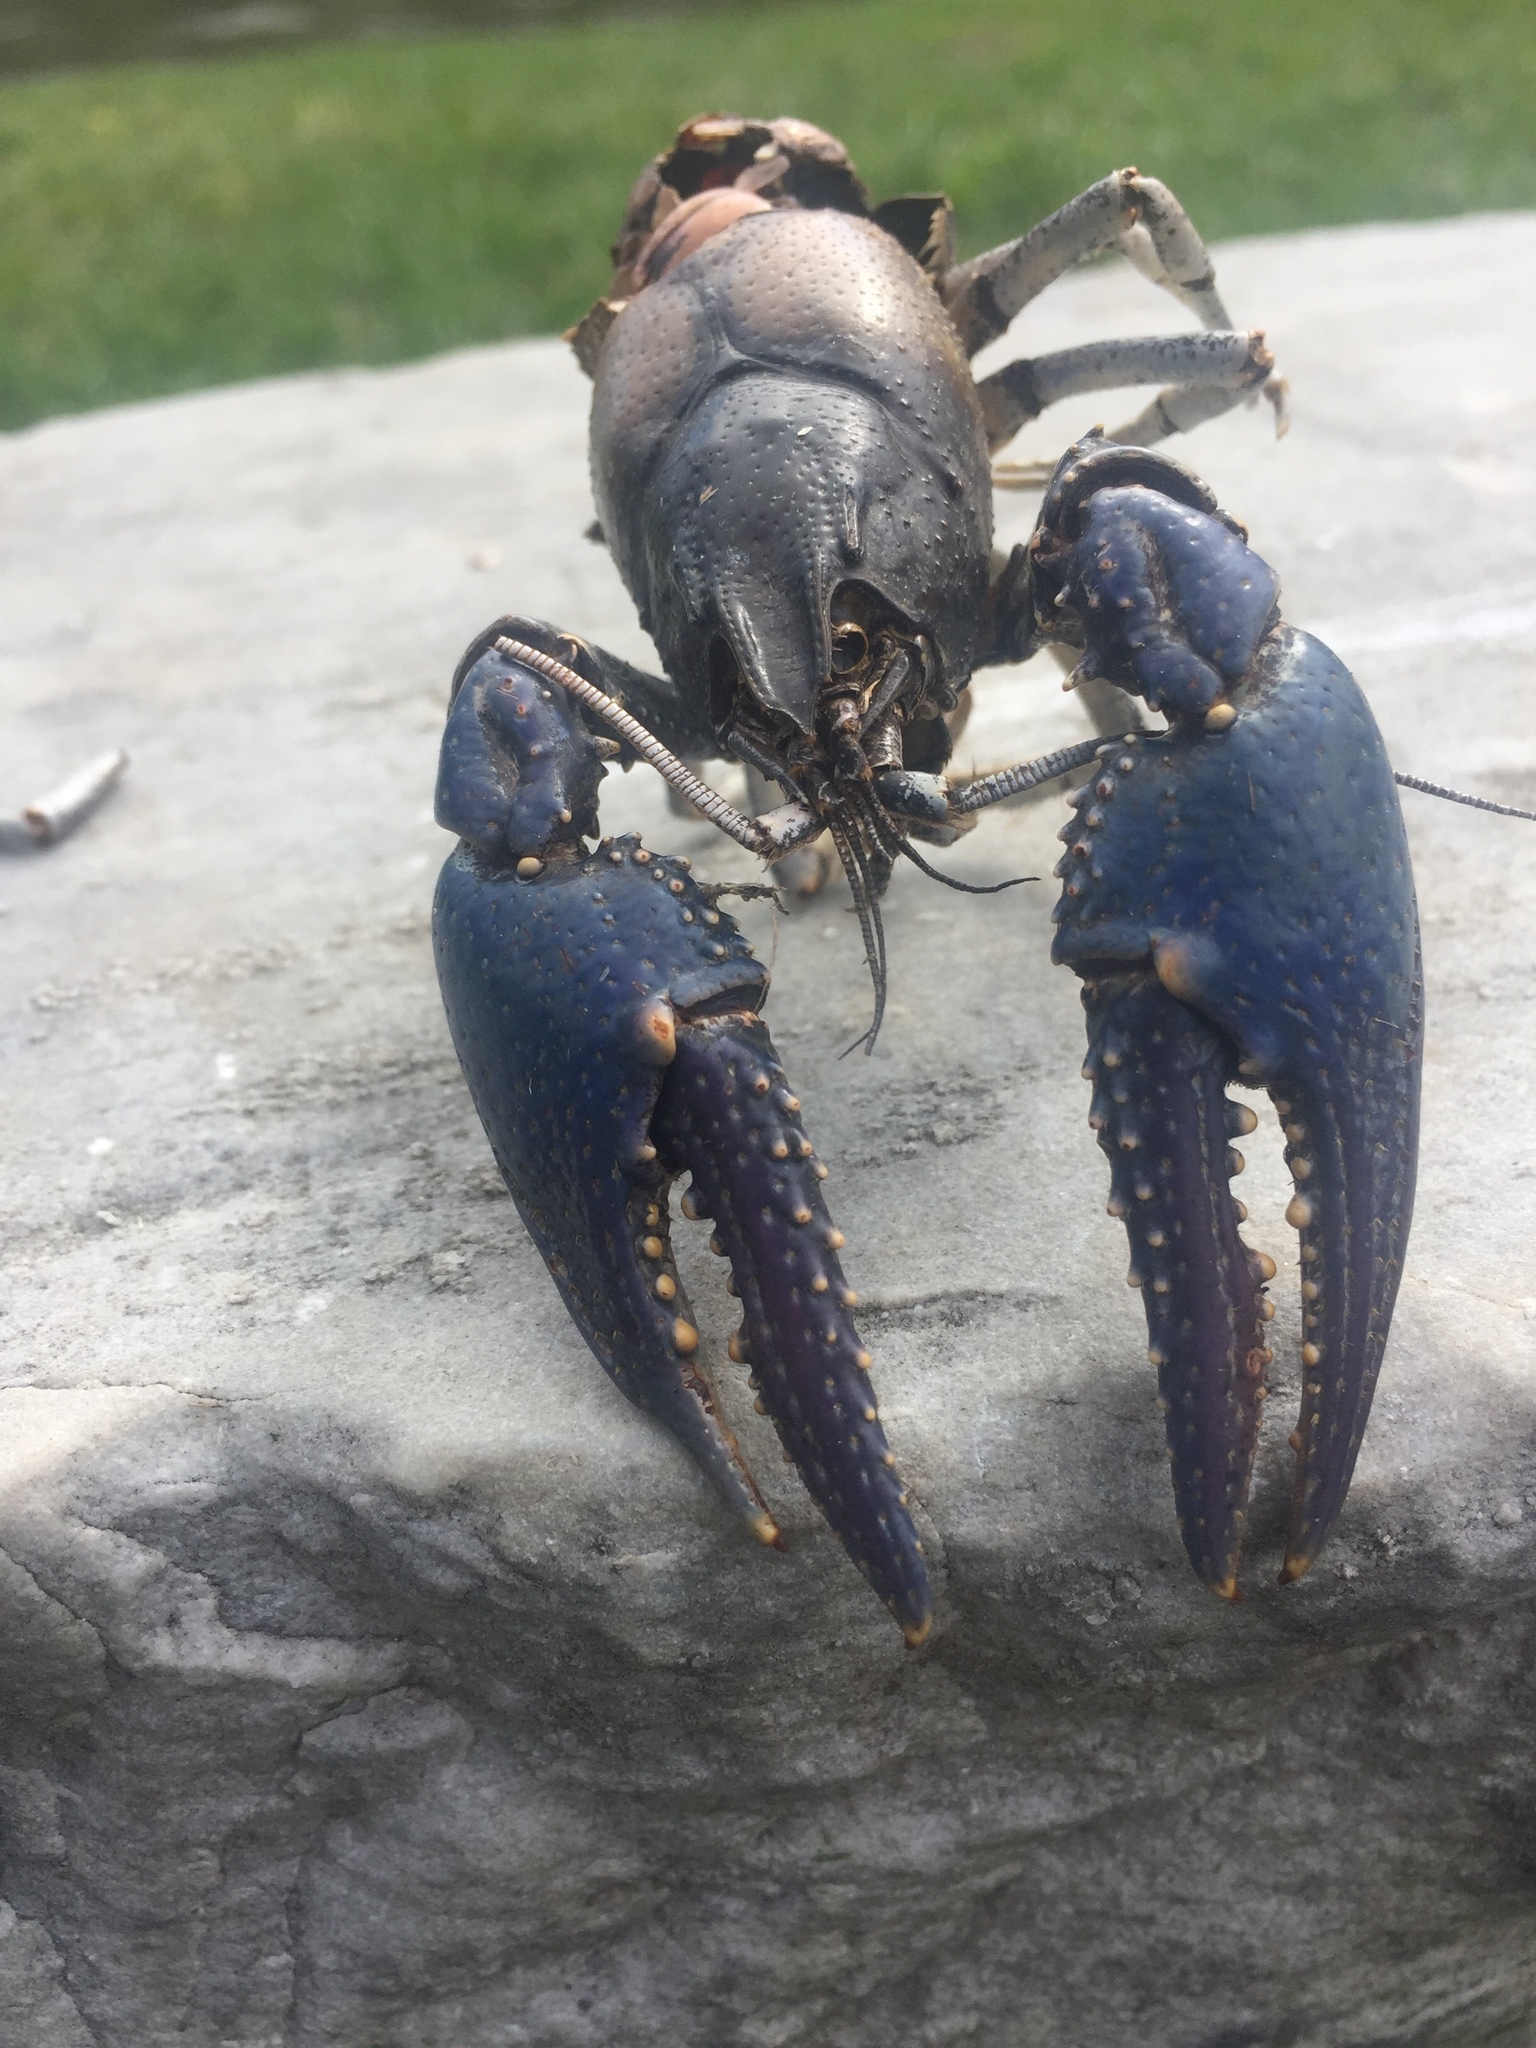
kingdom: Animalia
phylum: Arthropoda
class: Malacostraca
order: Decapoda
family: Cambaridae
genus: Faxonius
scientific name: Faxonius virilis
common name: Virile crayfish
